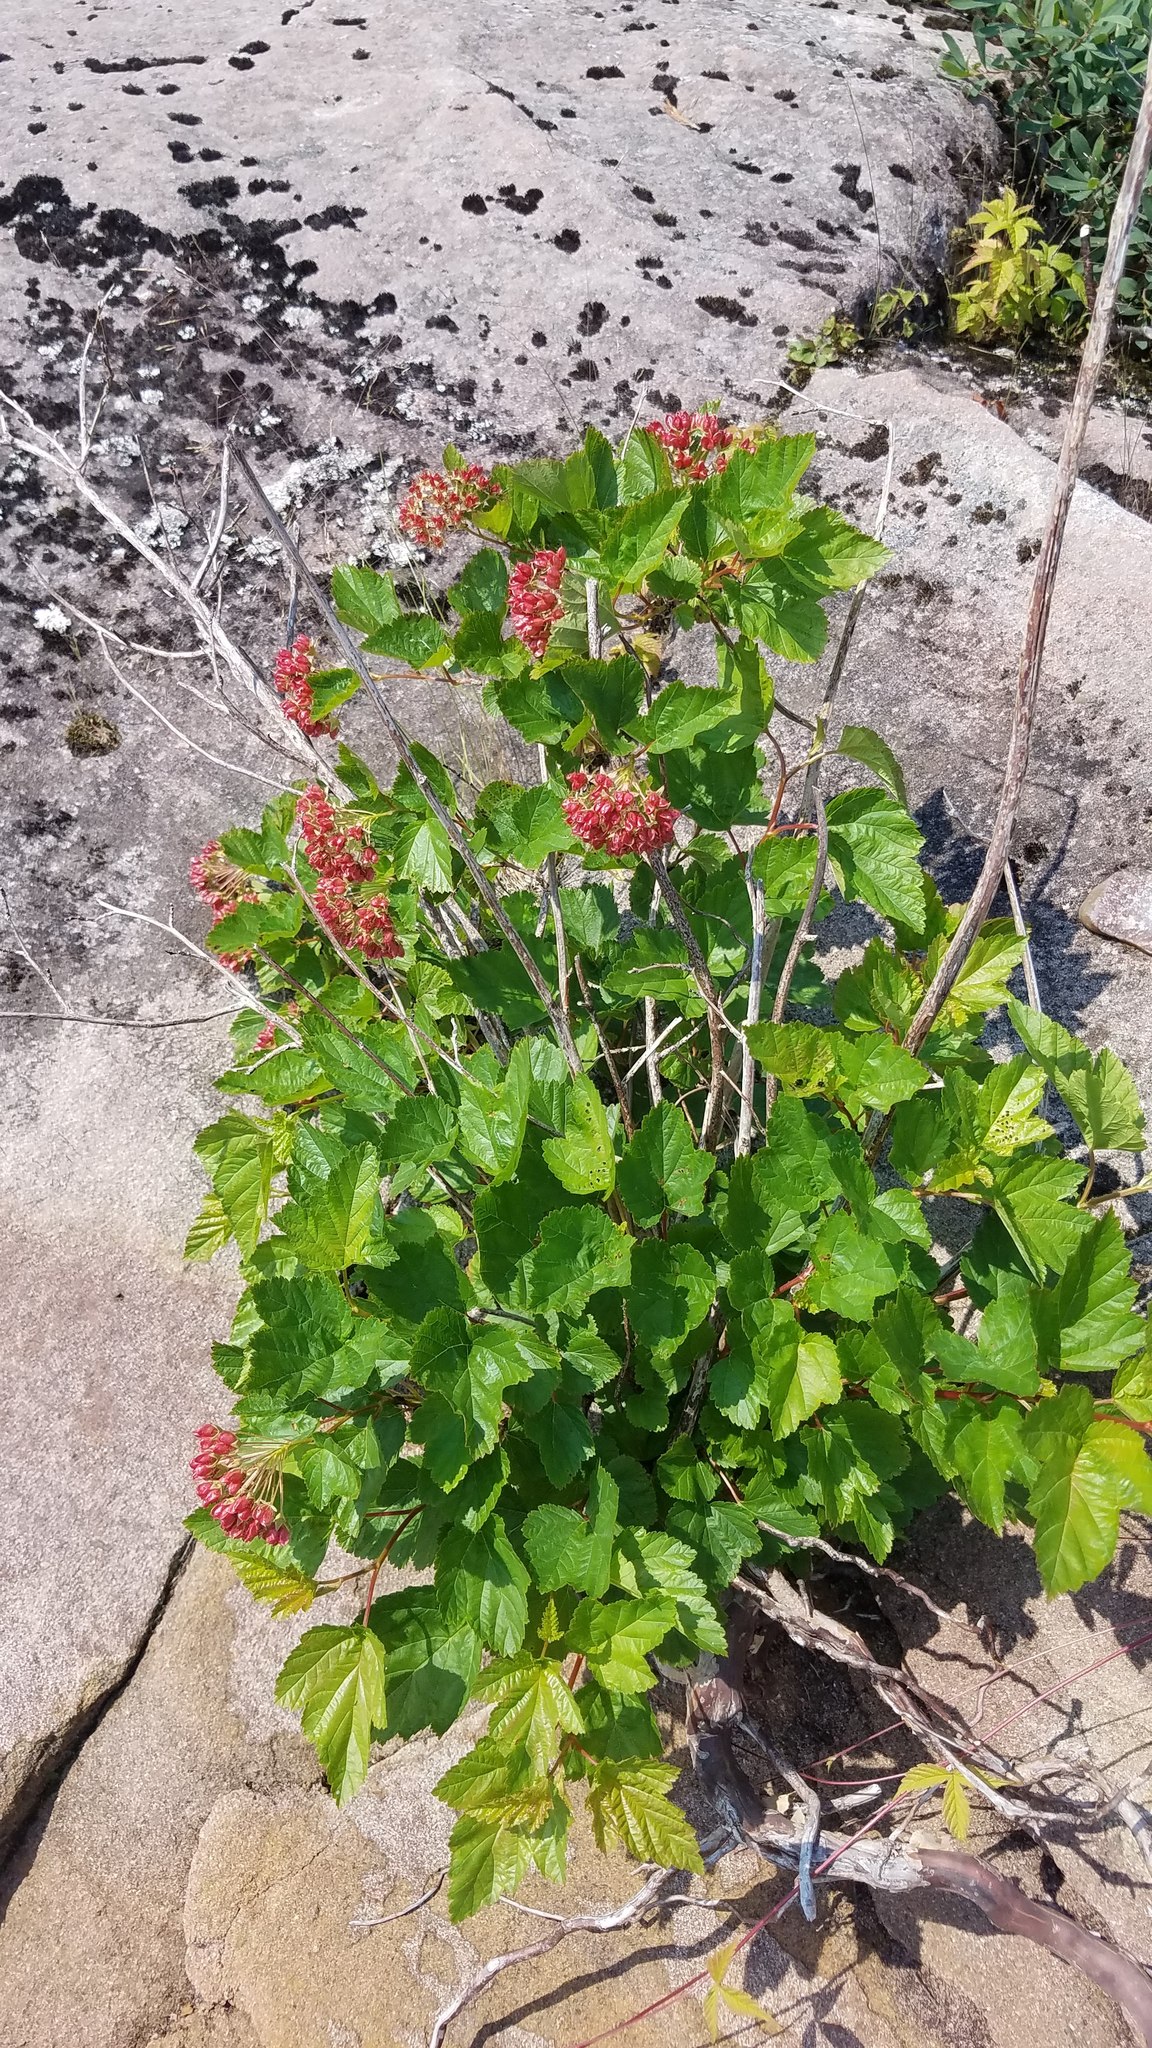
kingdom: Plantae
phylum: Tracheophyta
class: Magnoliopsida
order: Rosales
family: Rosaceae
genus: Physocarpus
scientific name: Physocarpus opulifolius
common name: Ninebark
